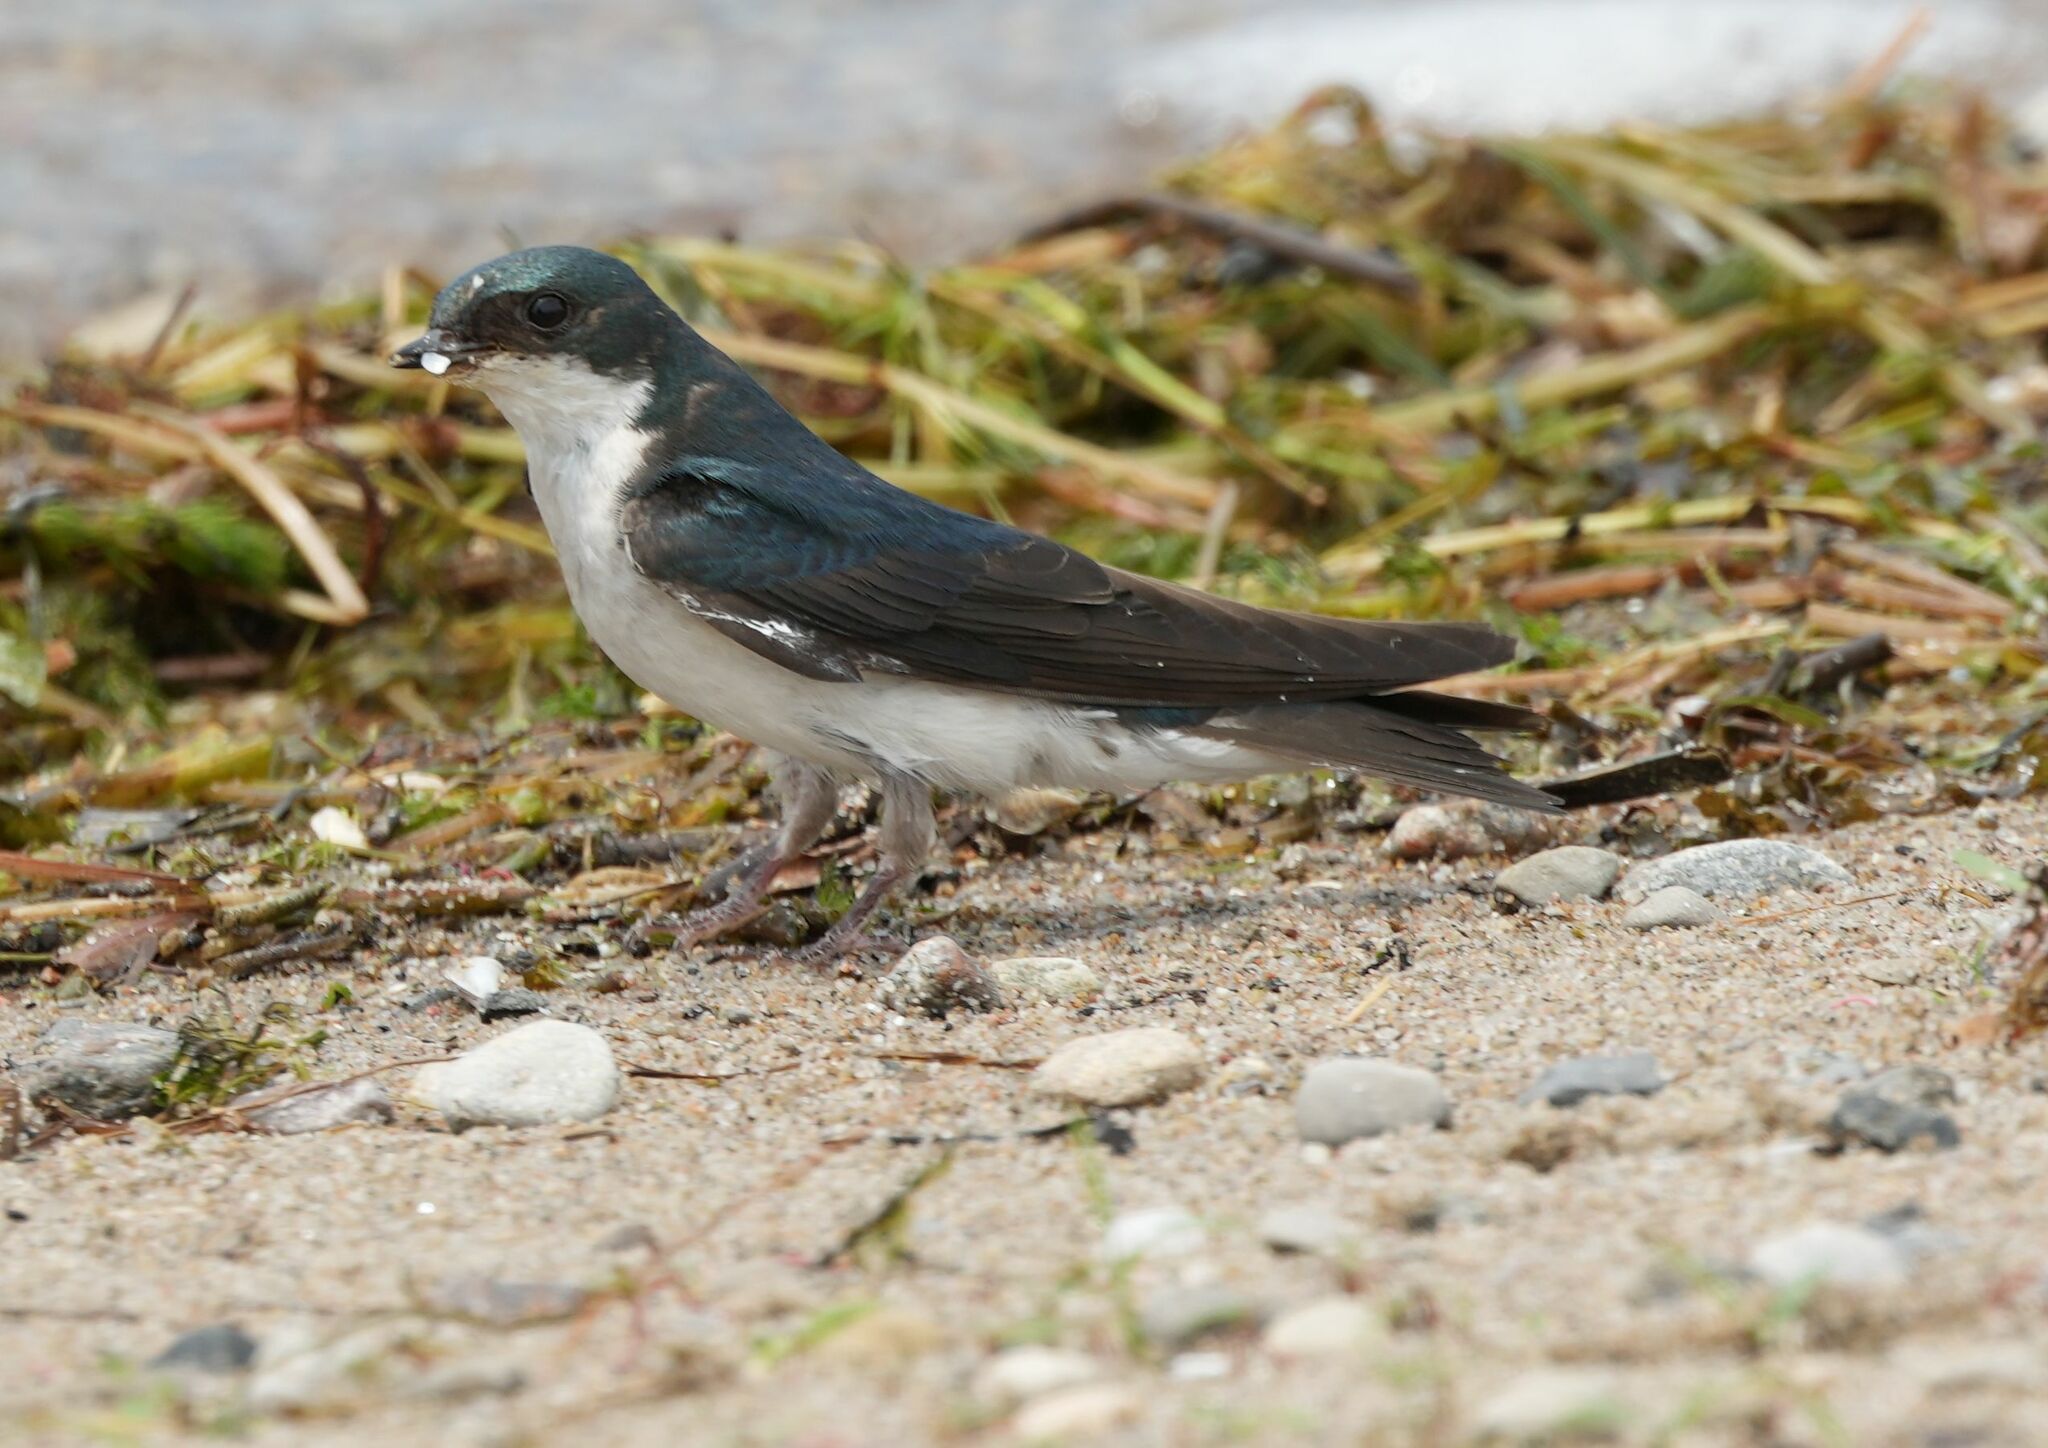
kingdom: Animalia
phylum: Chordata
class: Aves
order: Passeriformes
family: Hirundinidae
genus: Tachycineta
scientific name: Tachycineta bicolor
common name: Tree swallow
